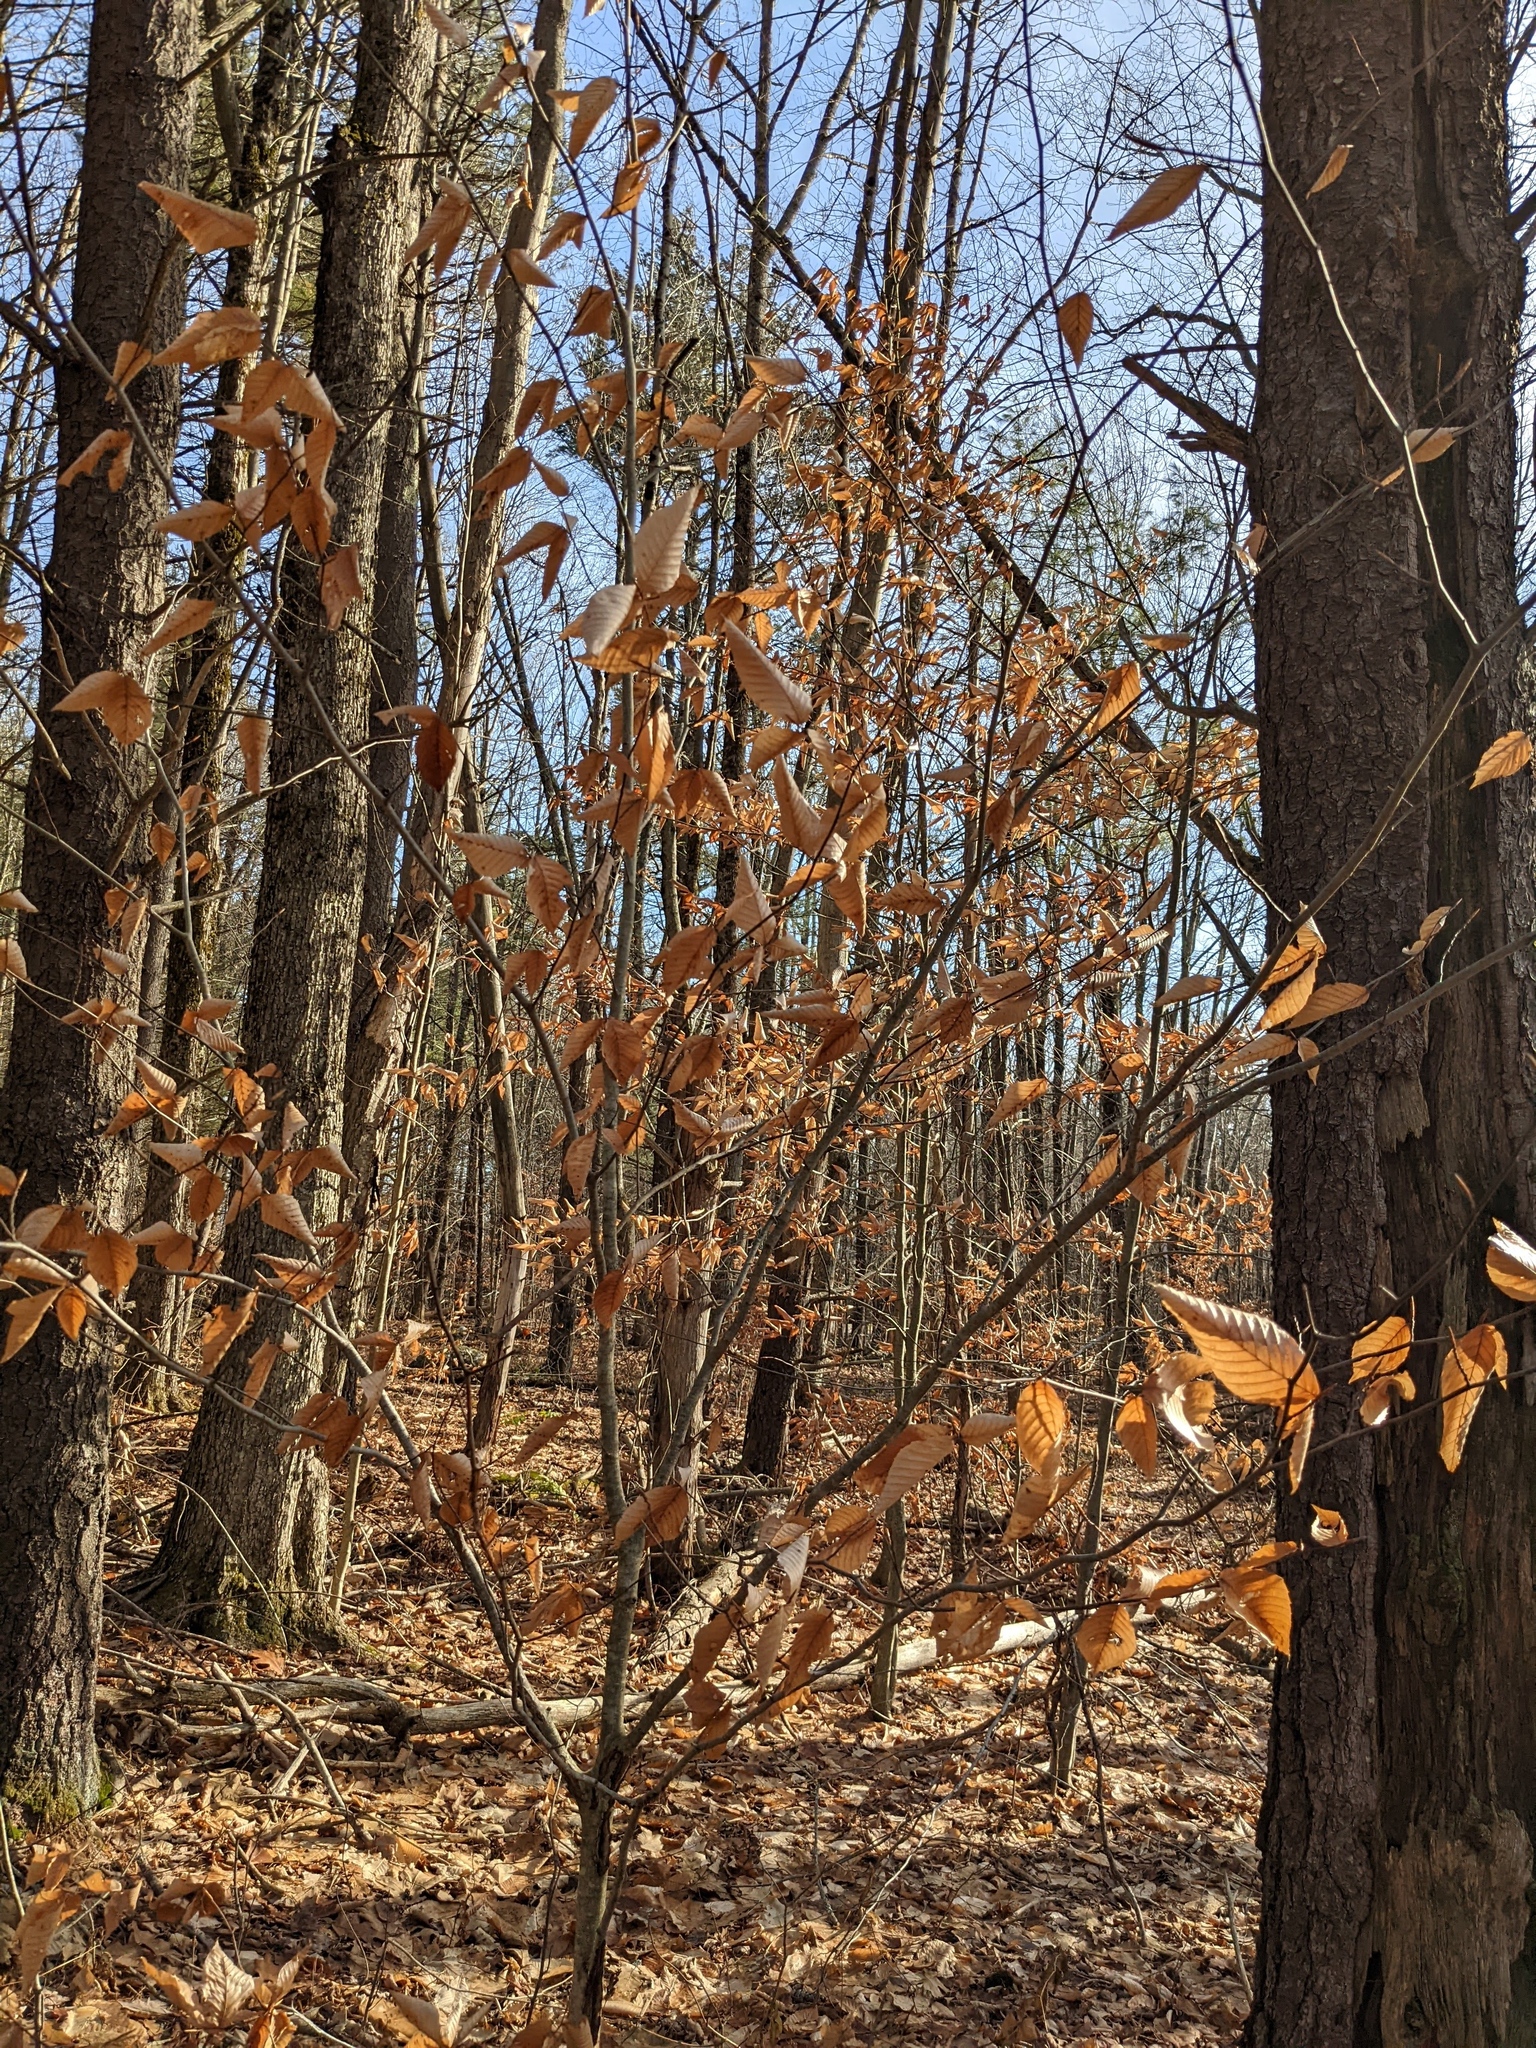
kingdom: Plantae
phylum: Tracheophyta
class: Magnoliopsida
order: Fagales
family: Fagaceae
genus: Fagus
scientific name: Fagus grandifolia
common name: American beech
